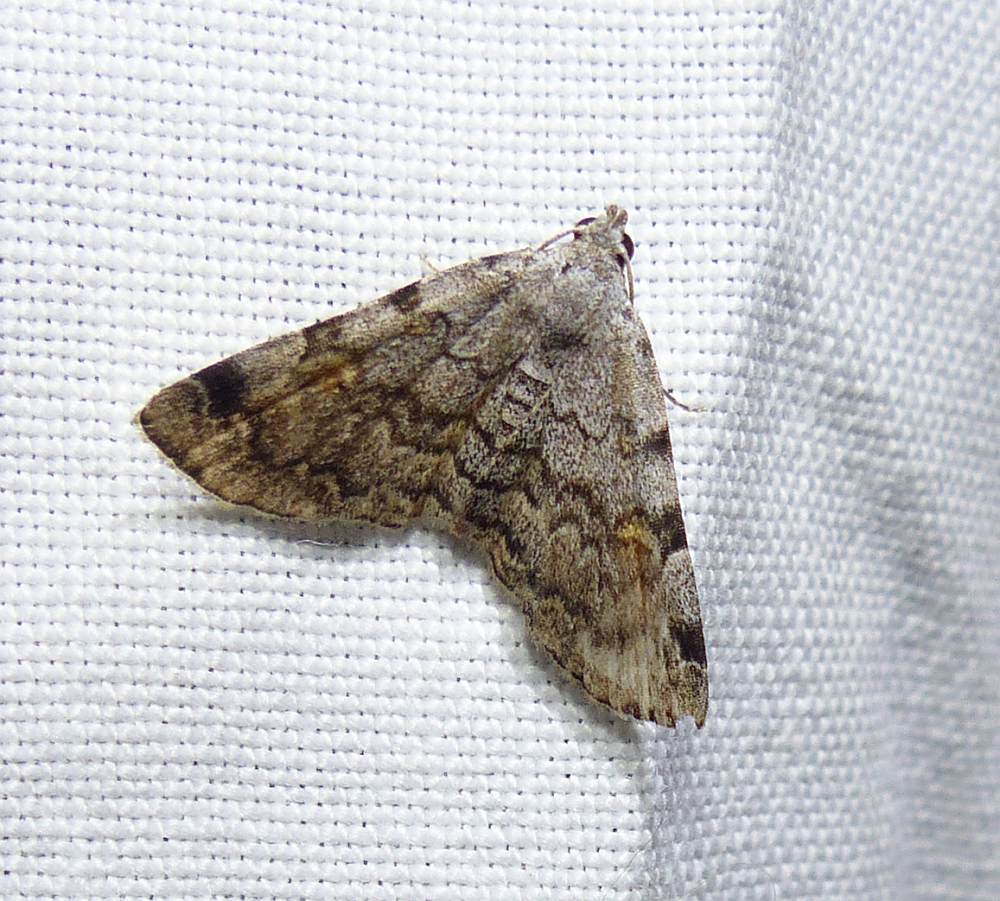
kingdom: Animalia
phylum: Arthropoda
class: Insecta
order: Lepidoptera
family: Erebidae
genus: Idia
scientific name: Idia americalis
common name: American idia moth
